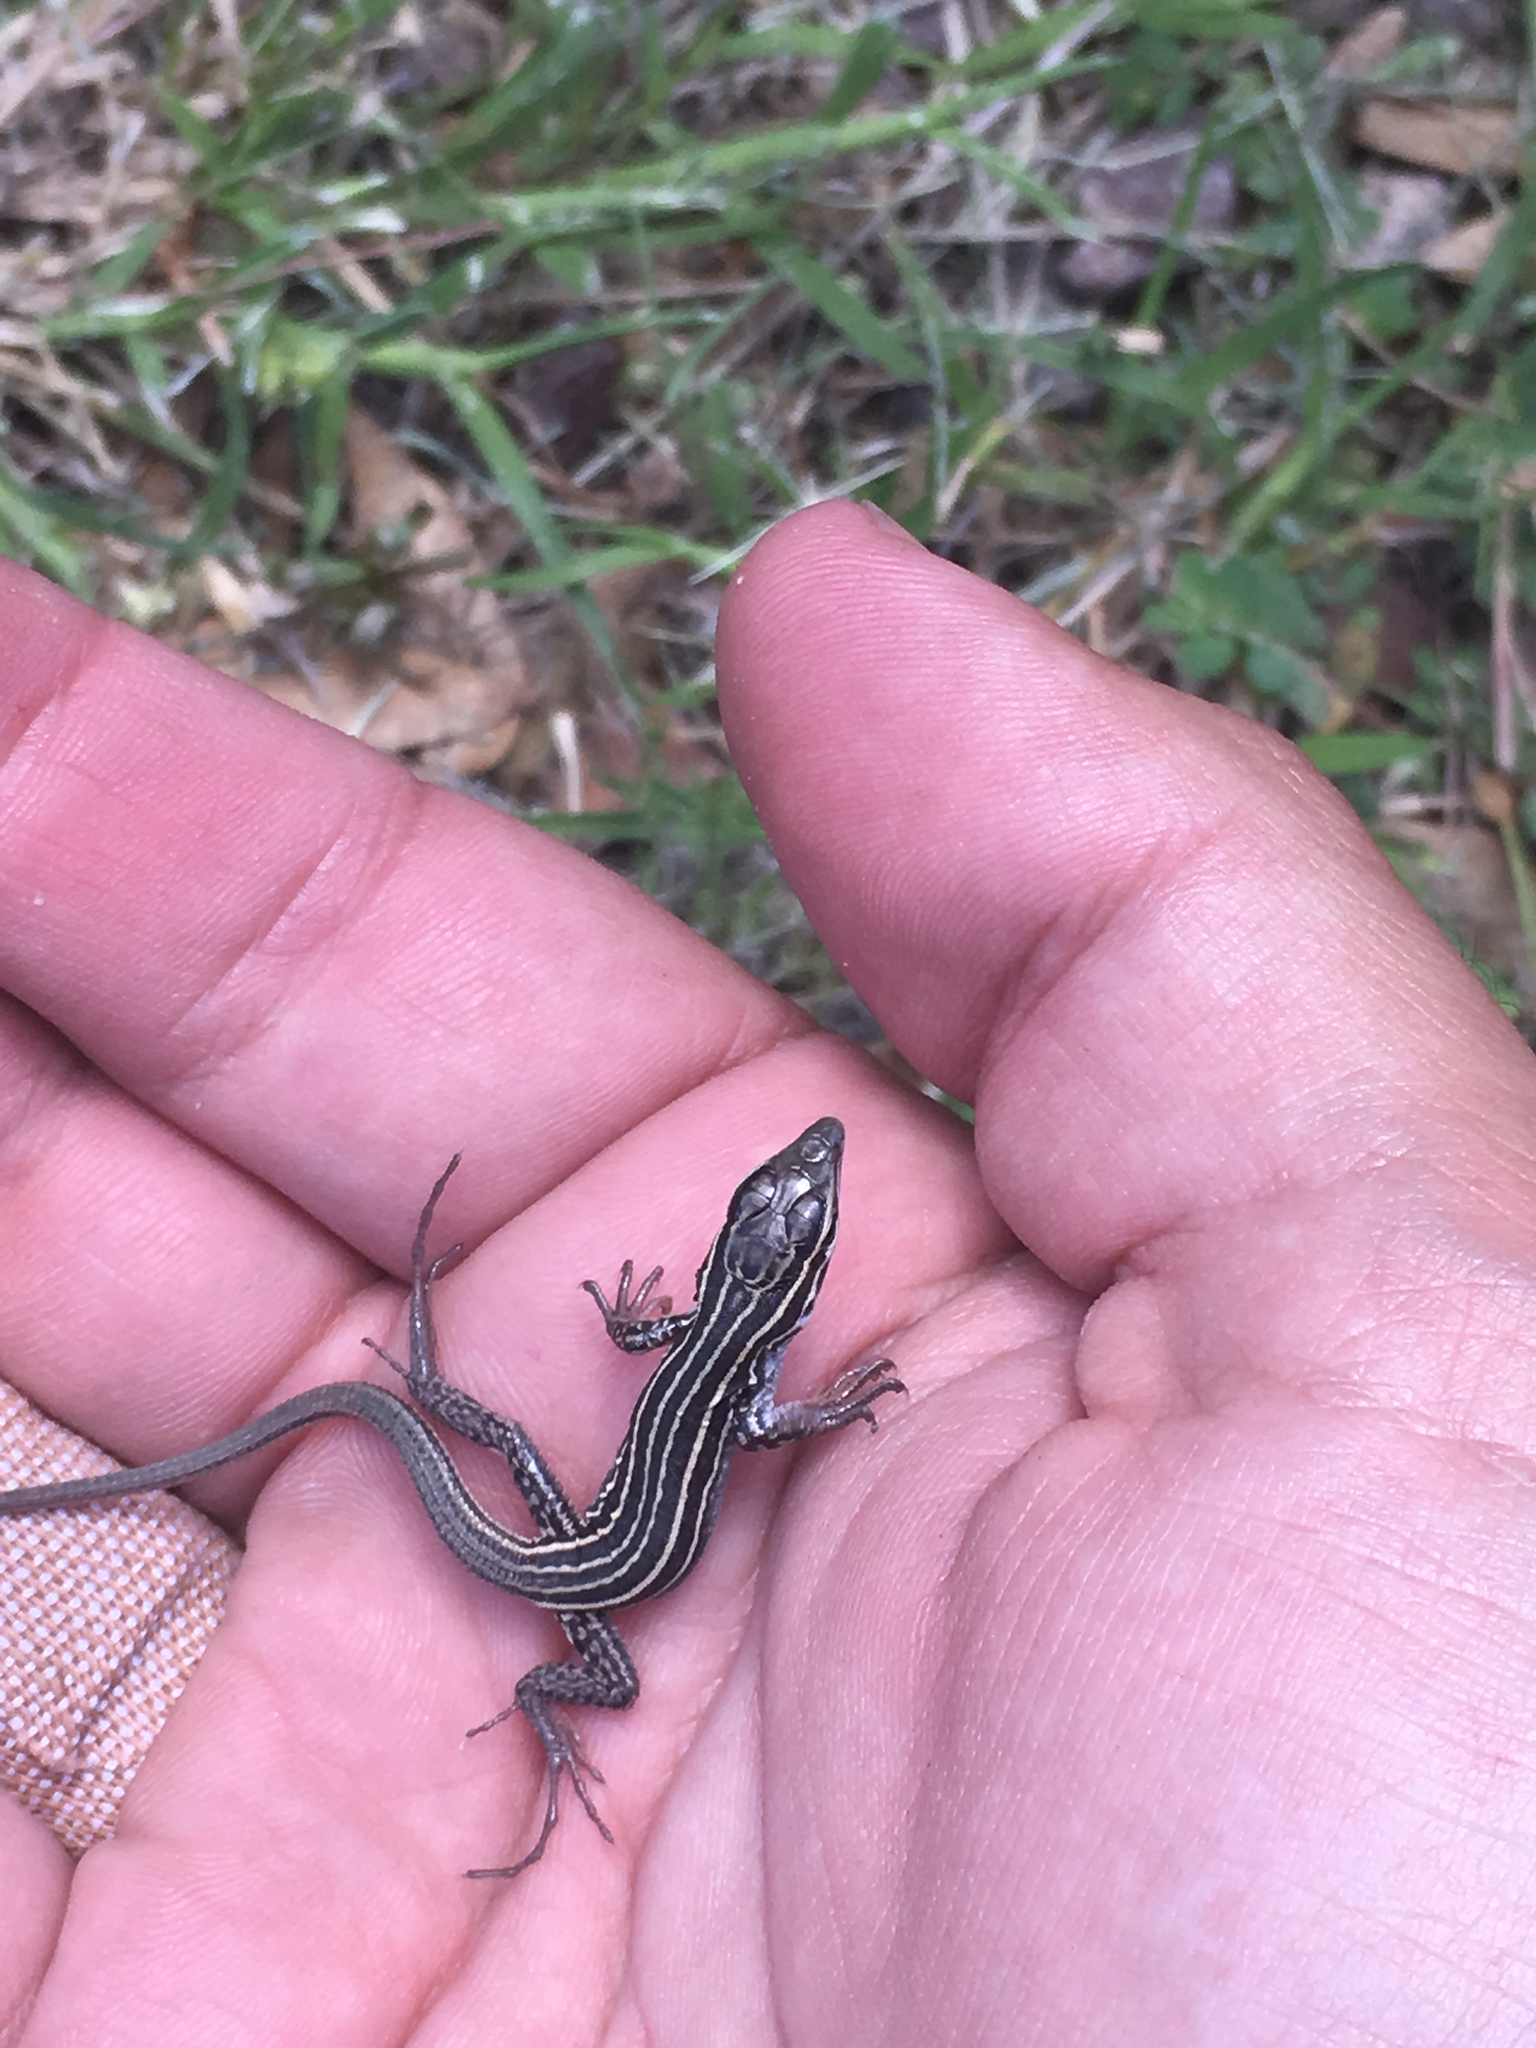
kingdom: Animalia
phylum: Chordata
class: Squamata
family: Teiidae
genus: Aspidoscelis
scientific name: Aspidoscelis exsanguis
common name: Chihuahuan spotted whiptail
